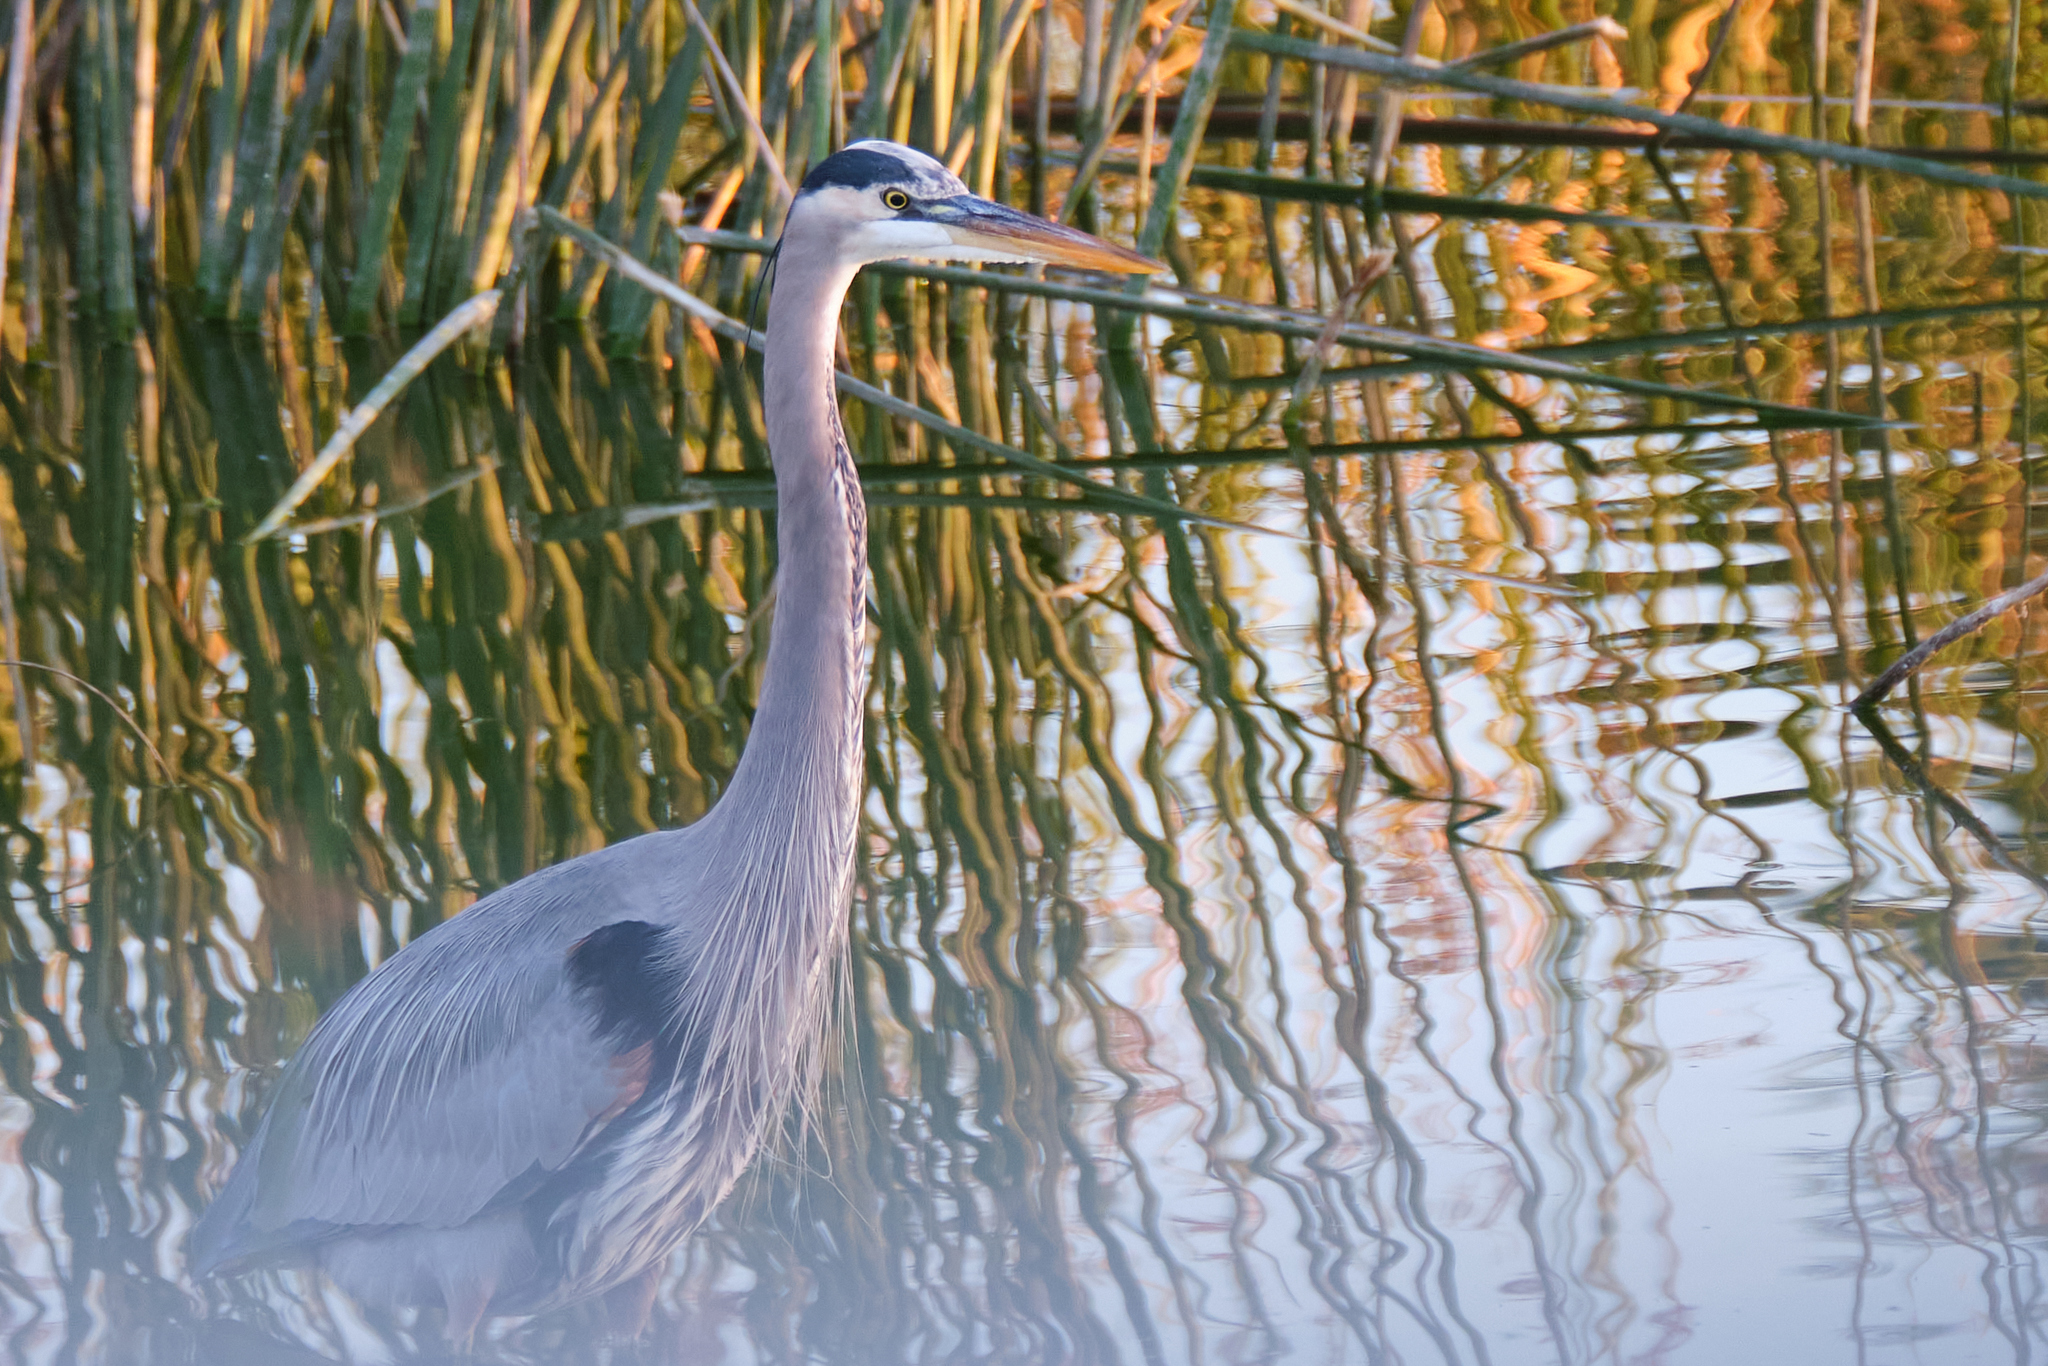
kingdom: Animalia
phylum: Chordata
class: Aves
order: Pelecaniformes
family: Ardeidae
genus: Ardea
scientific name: Ardea herodias
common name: Great blue heron
